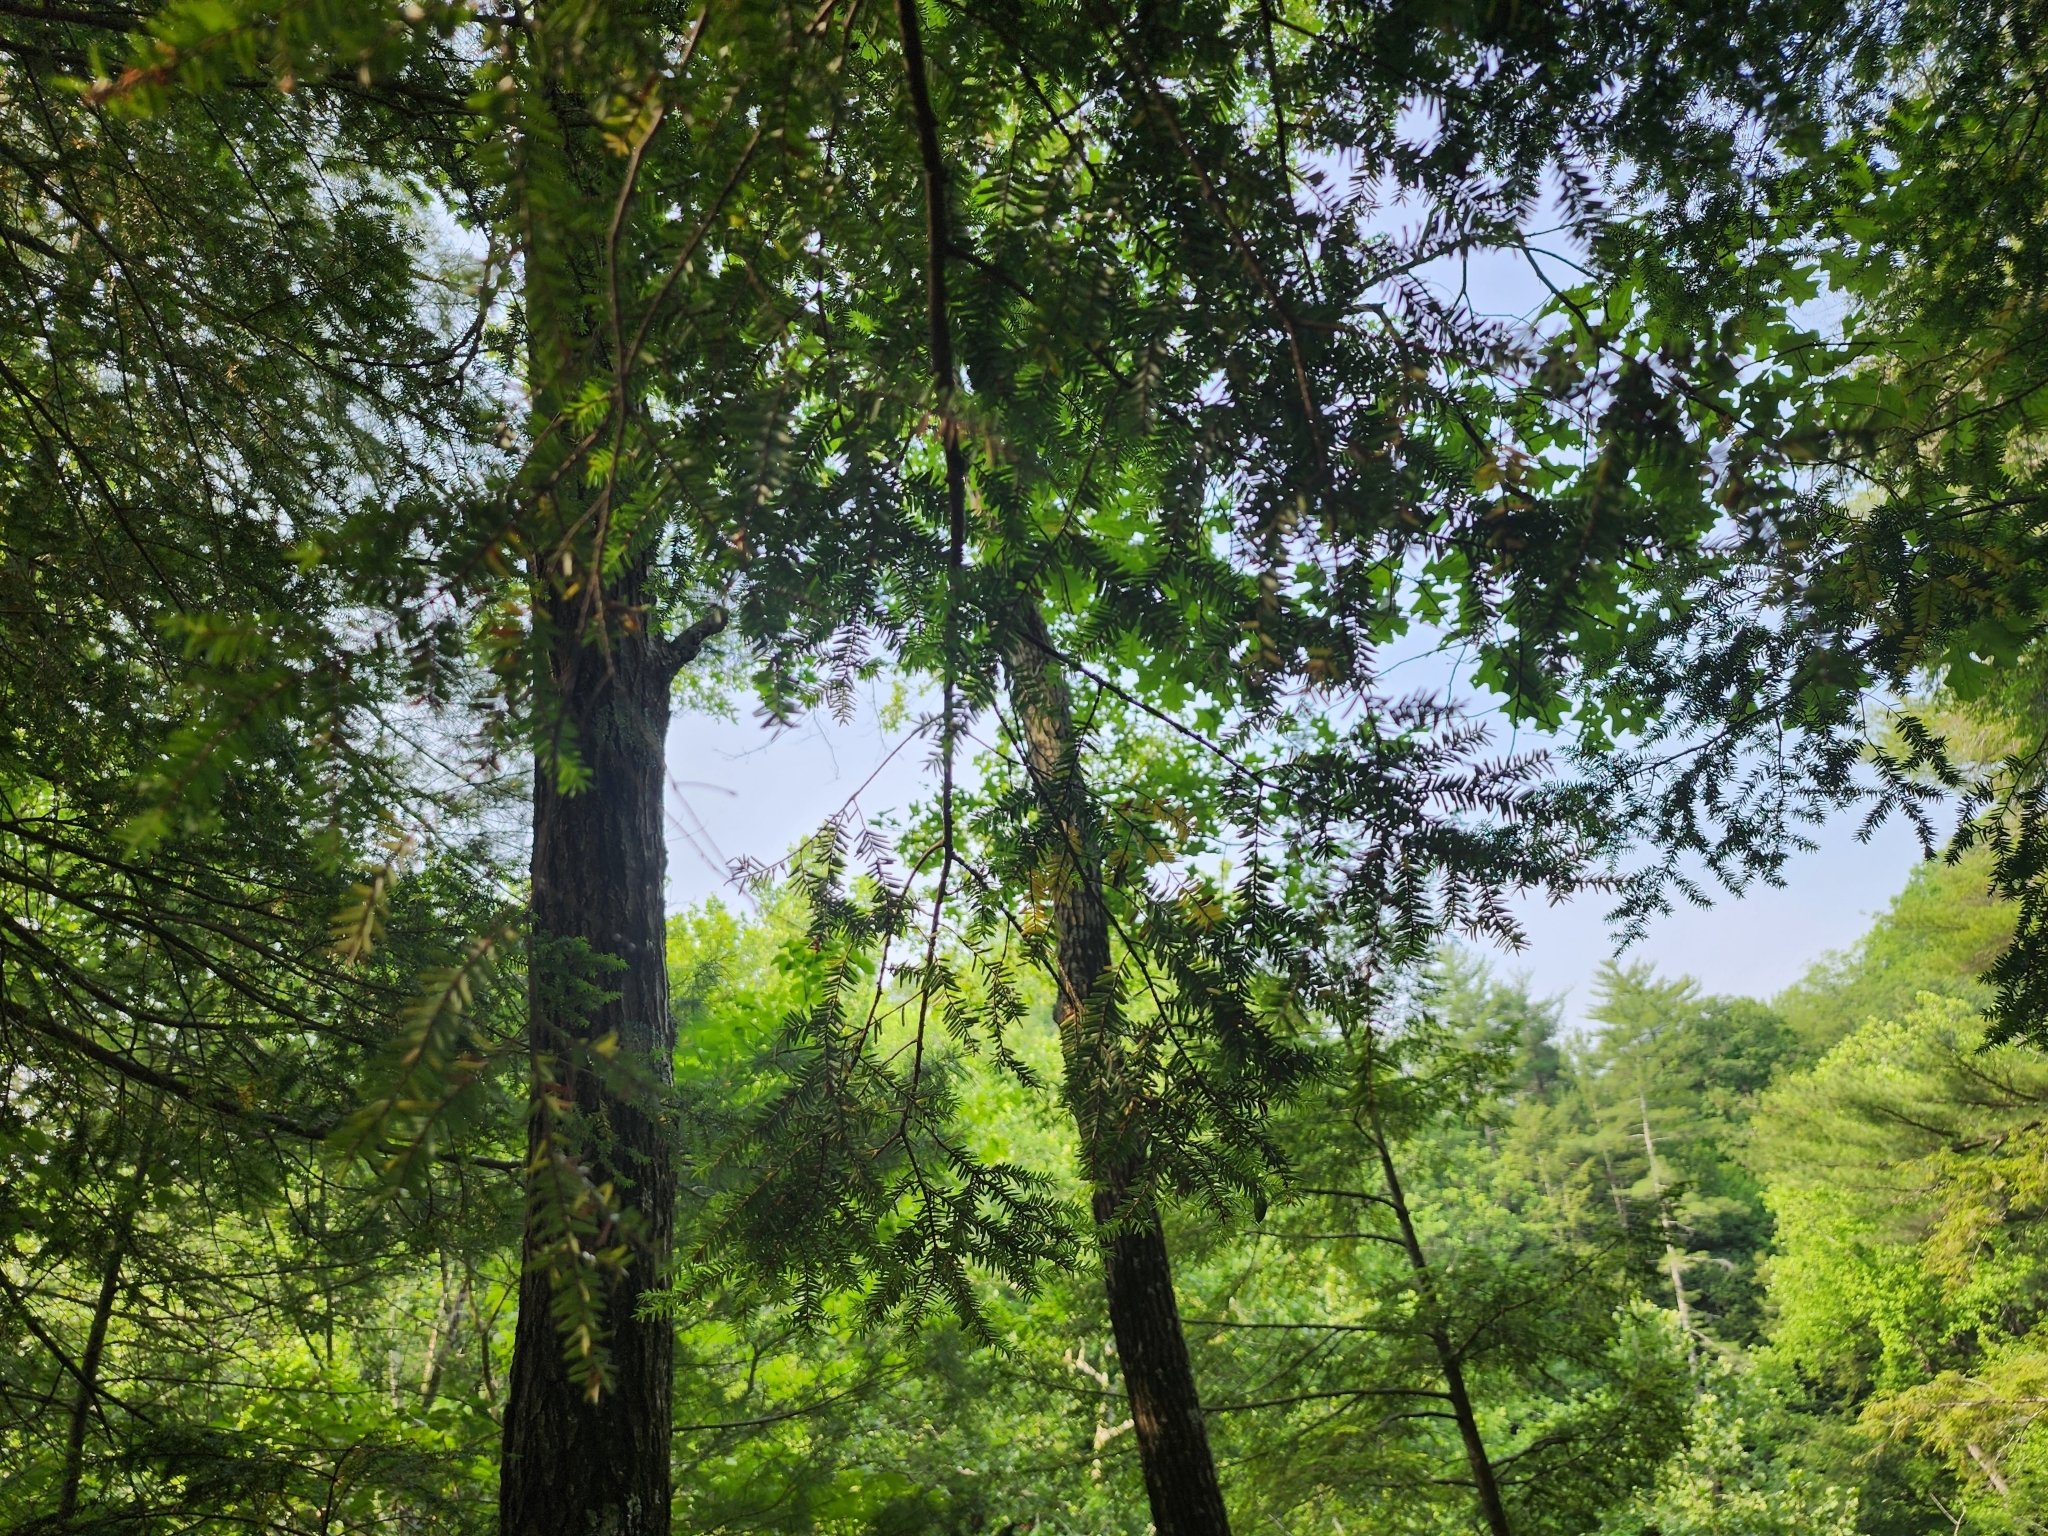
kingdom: Plantae
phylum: Tracheophyta
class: Pinopsida
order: Pinales
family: Pinaceae
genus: Tsuga
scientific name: Tsuga canadensis
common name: Eastern hemlock
